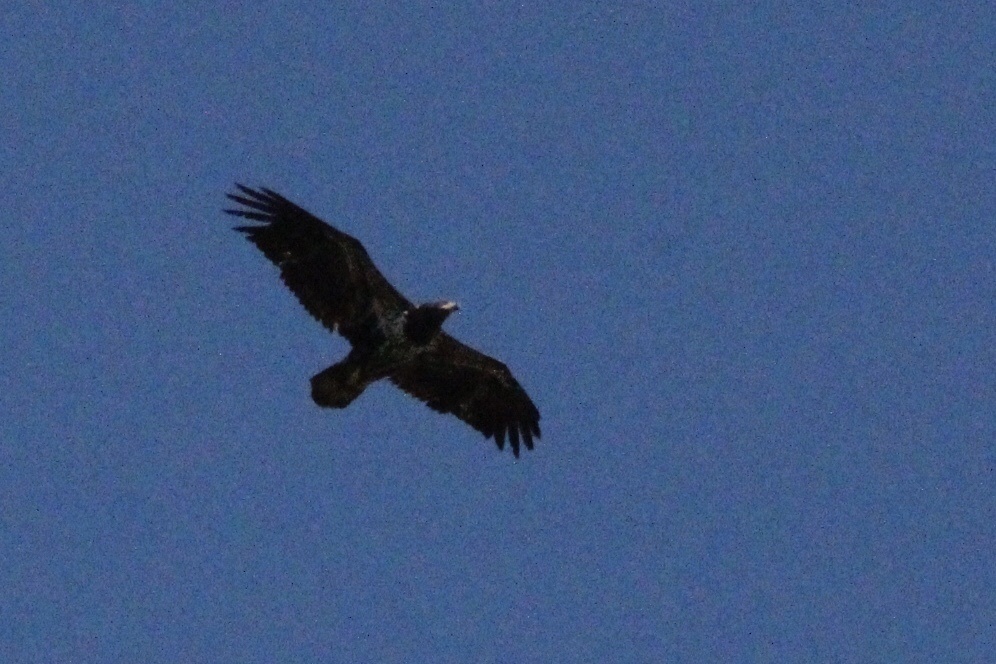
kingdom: Animalia
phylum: Chordata
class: Aves
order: Accipitriformes
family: Accipitridae
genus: Haliaeetus
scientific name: Haliaeetus leucocephalus
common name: Bald eagle
